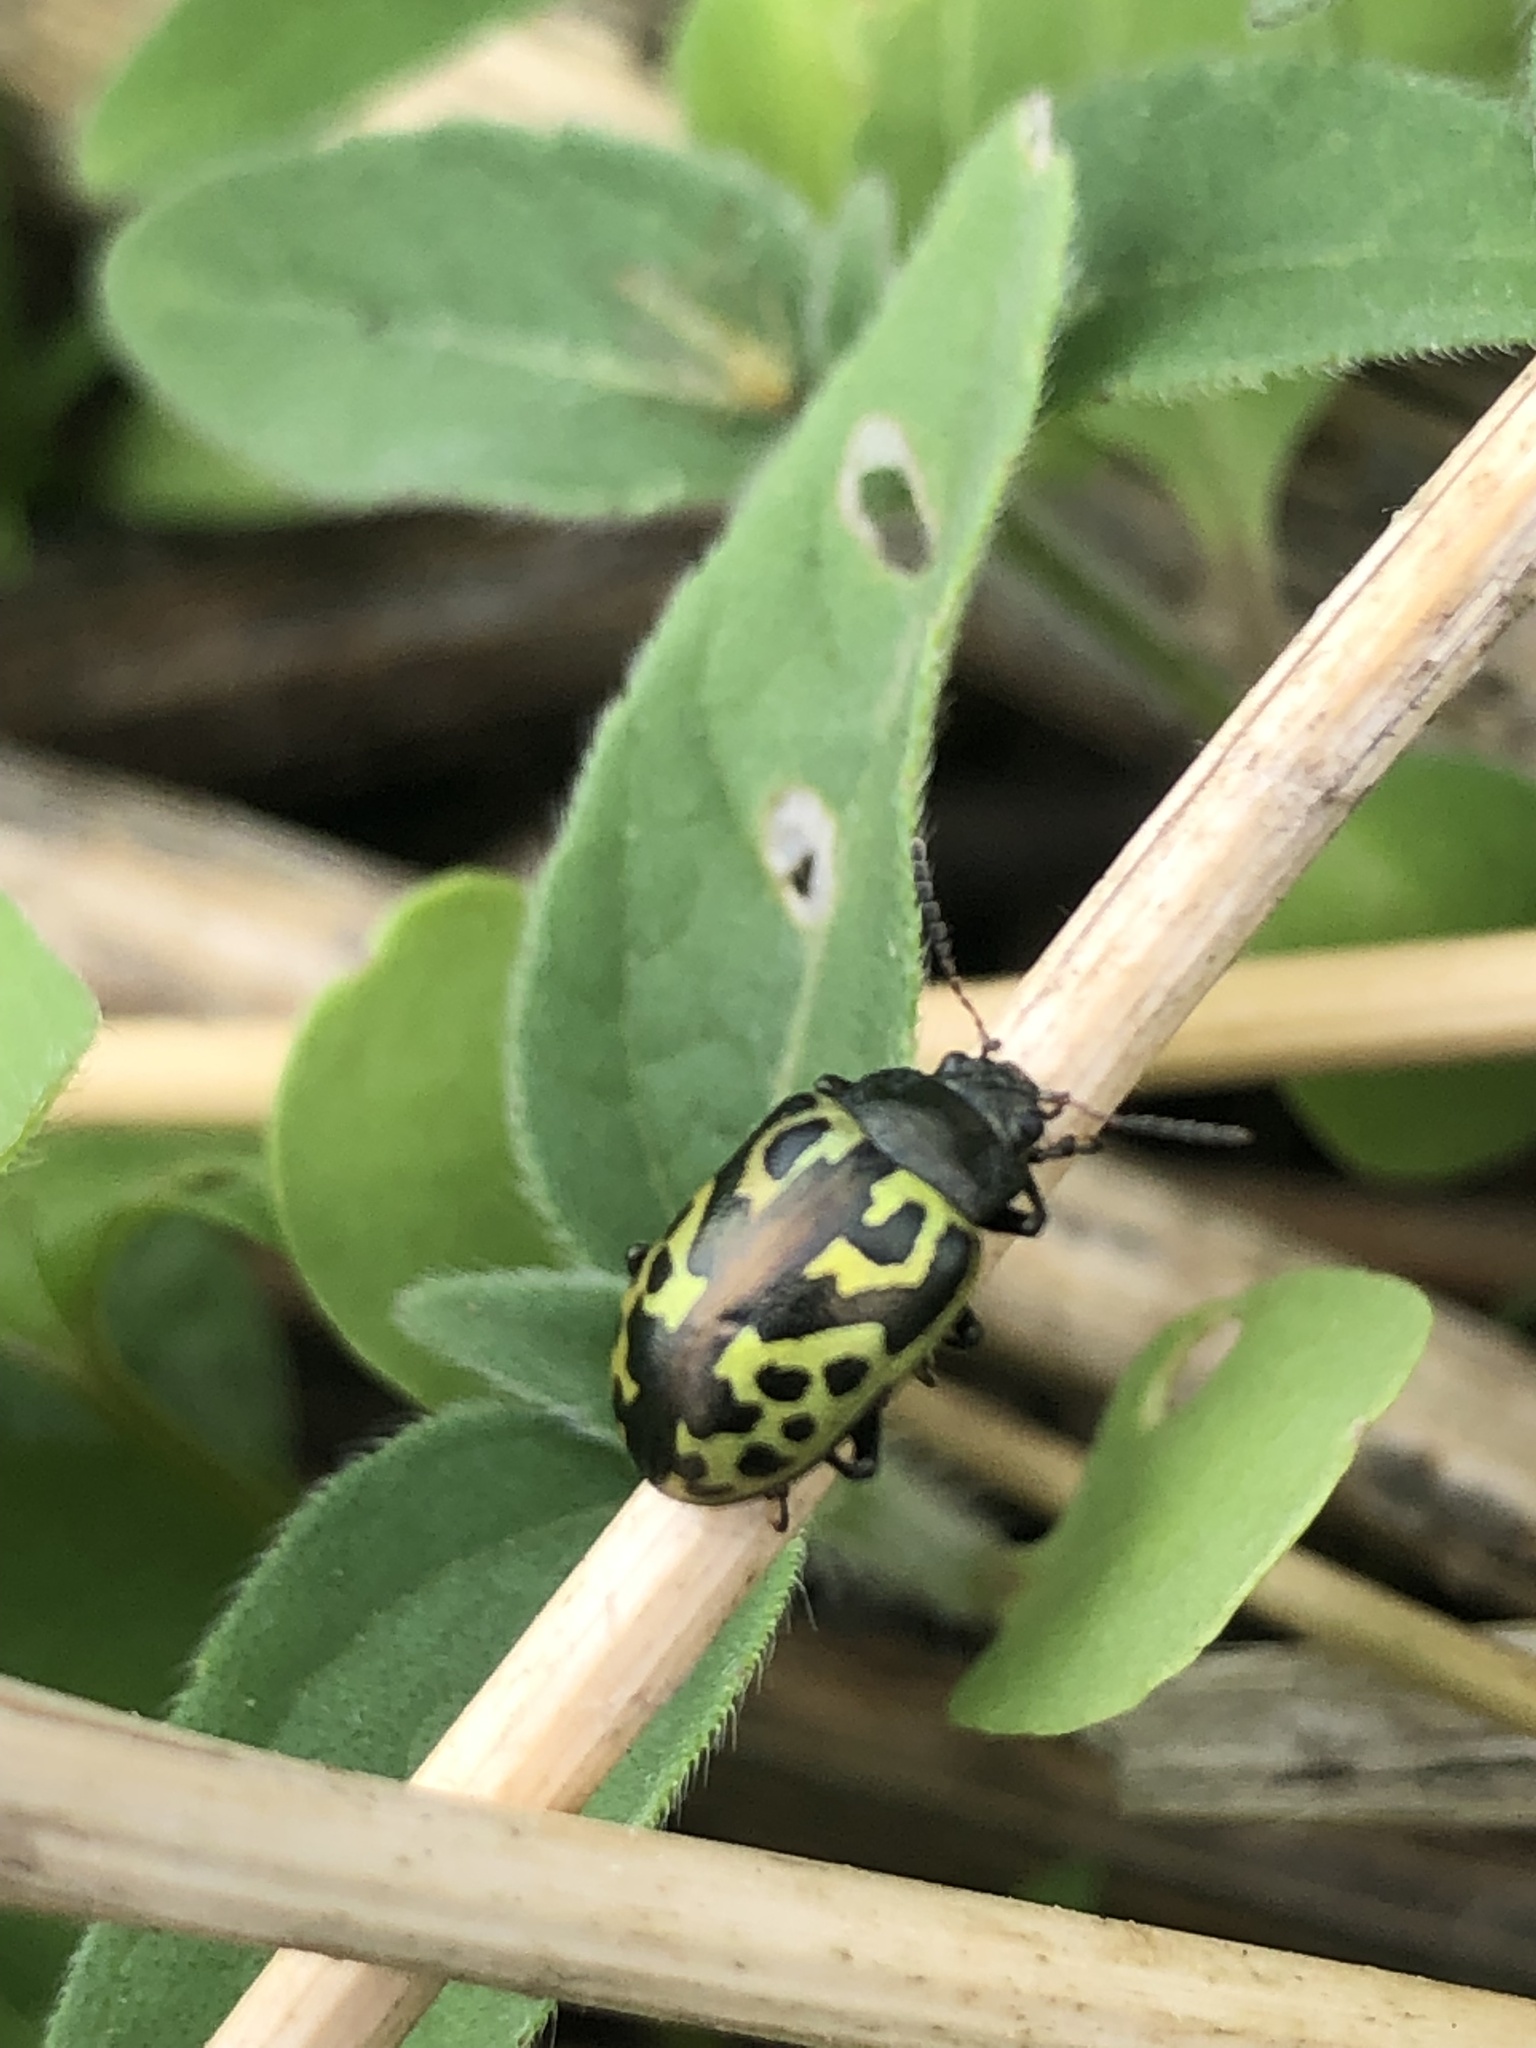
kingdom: Animalia
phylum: Arthropoda
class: Insecta
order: Coleoptera
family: Chrysomelidae
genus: Calligrapha
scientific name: Calligrapha
